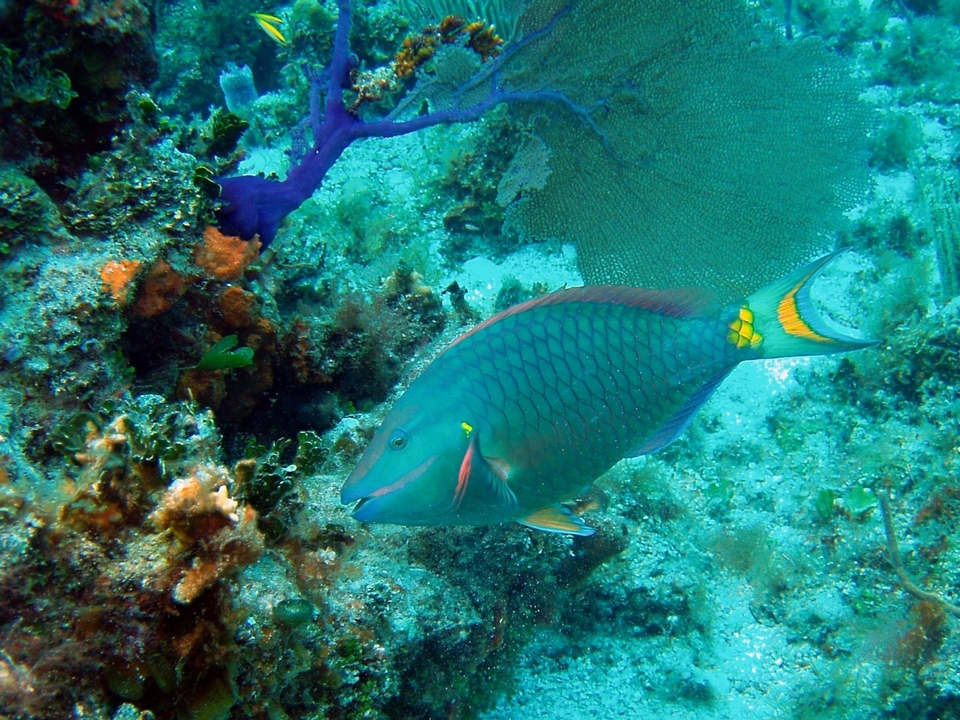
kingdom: Animalia
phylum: Chordata
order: Perciformes
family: Scaridae
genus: Sparisoma
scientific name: Sparisoma viride
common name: Stoplight parrotfish
